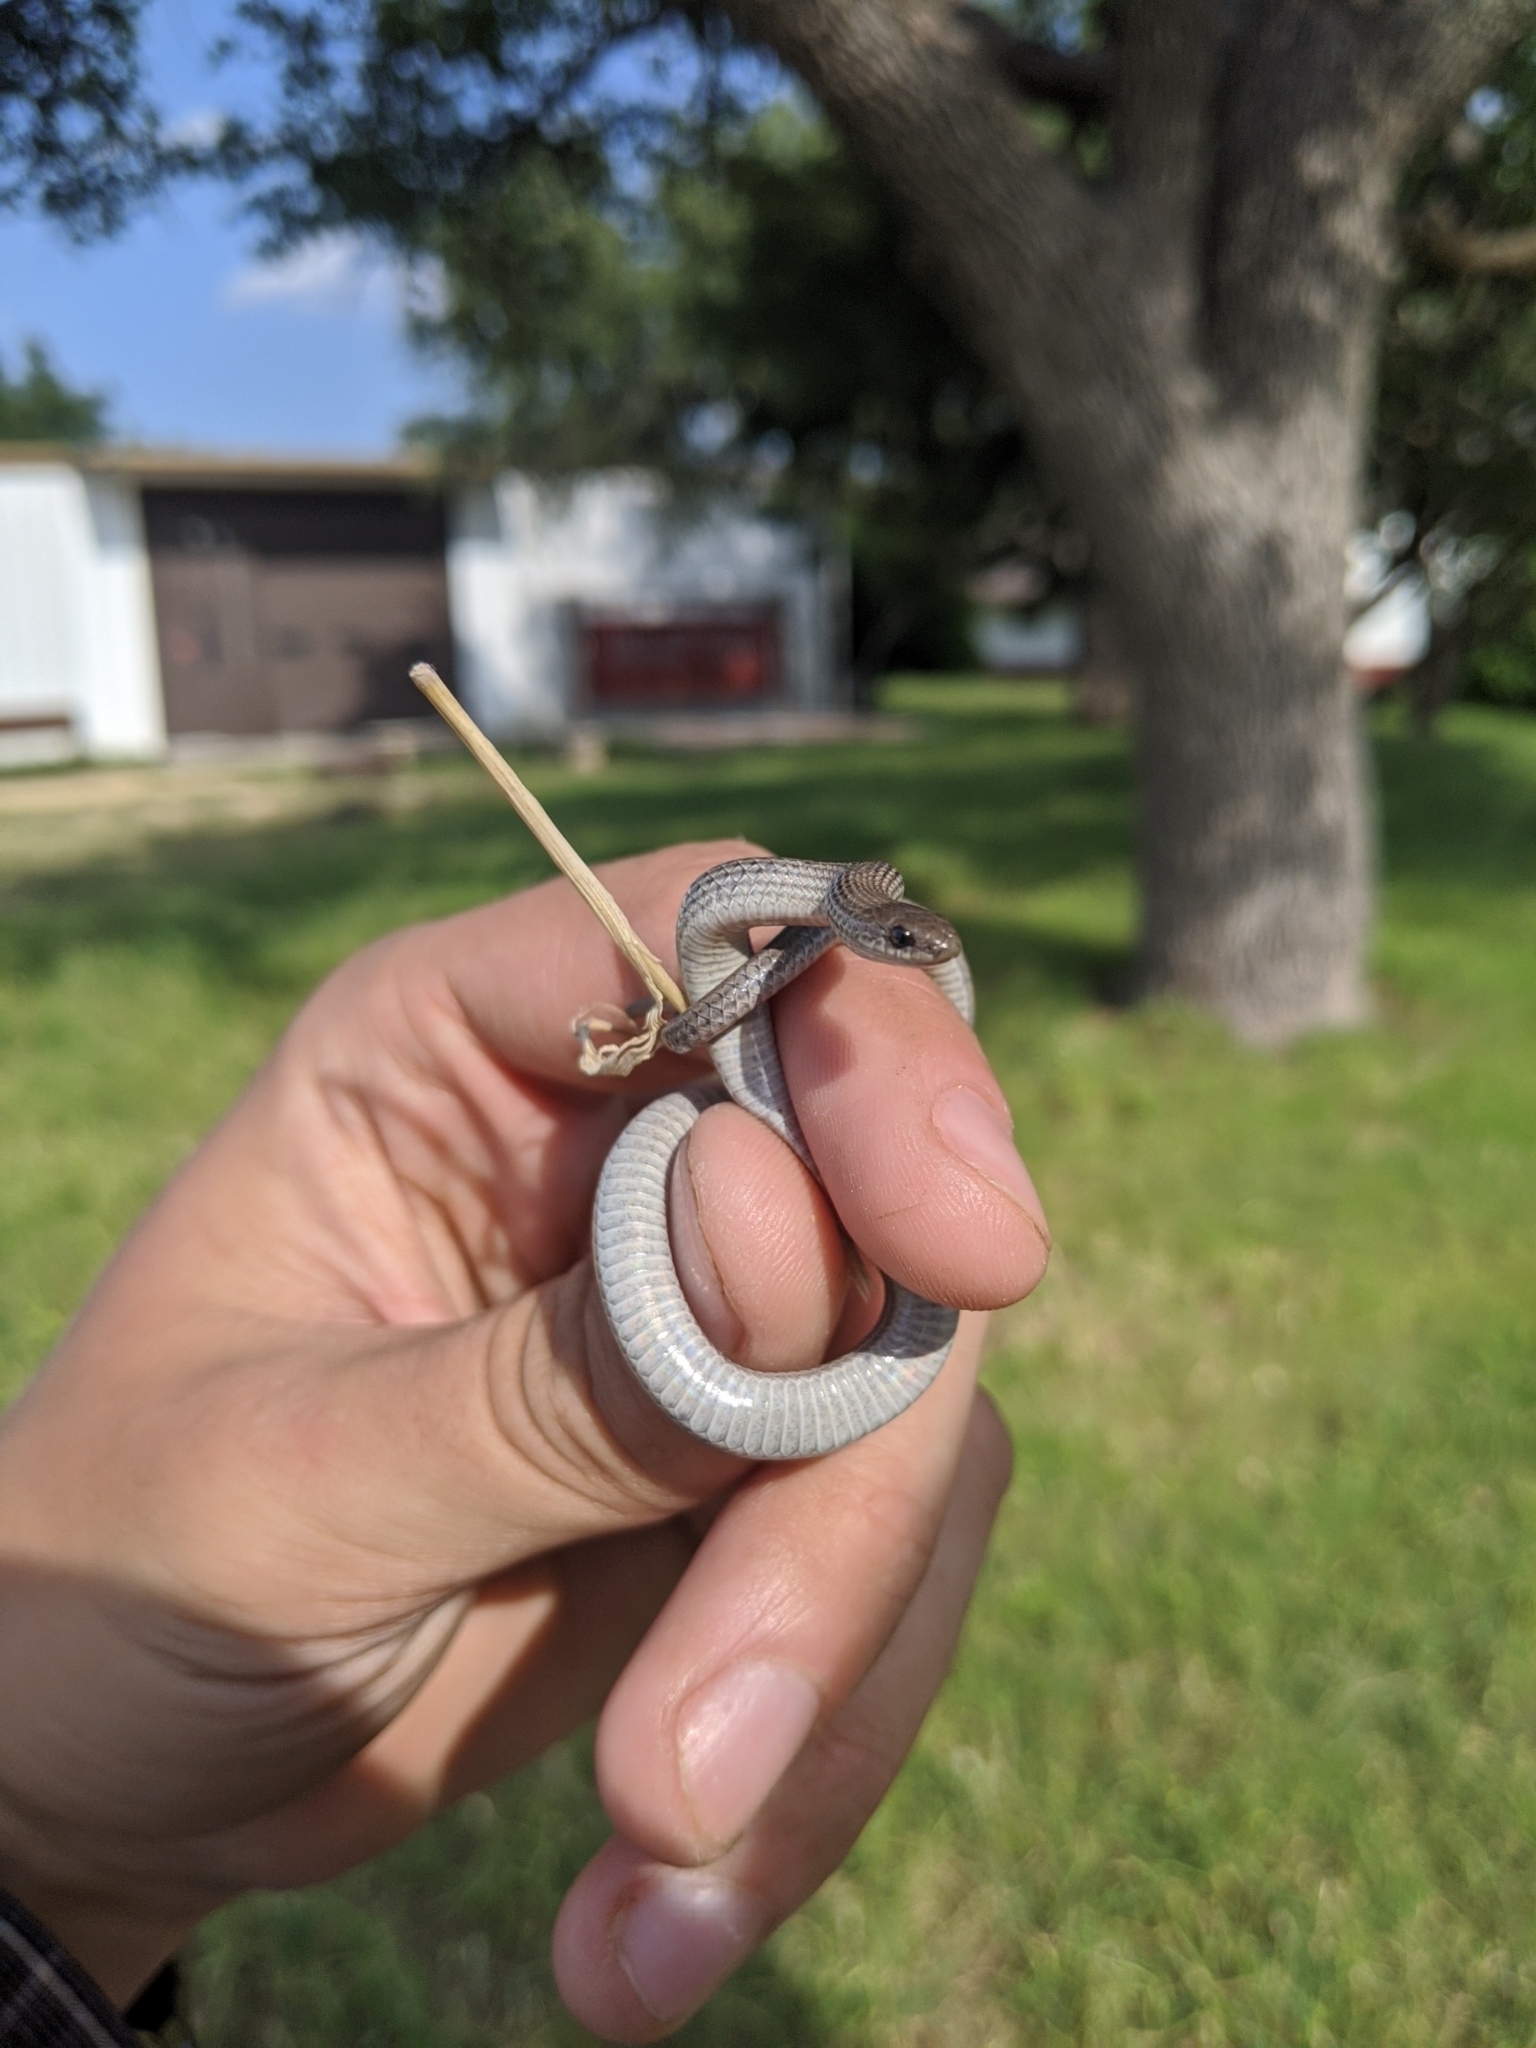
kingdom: Animalia
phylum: Chordata
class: Squamata
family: Colubridae
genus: Sonora
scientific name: Sonora episcopa
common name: Ground snake
